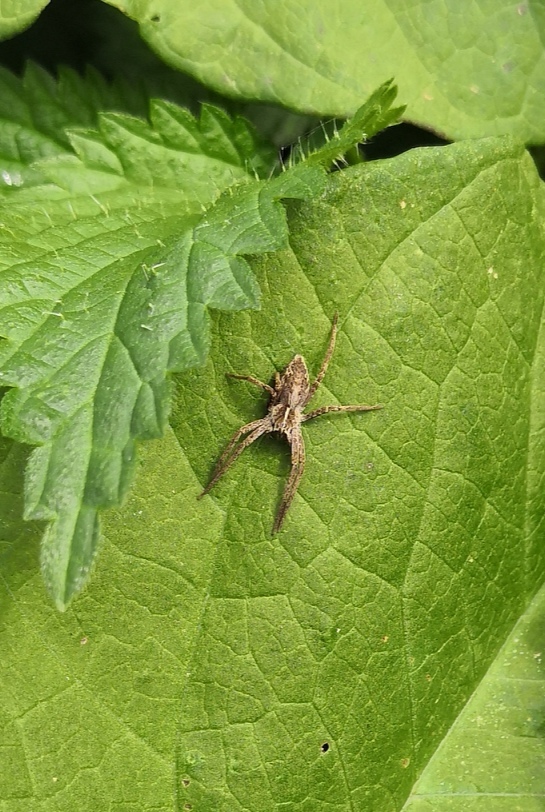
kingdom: Animalia
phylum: Arthropoda
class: Arachnida
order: Araneae
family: Pisauridae
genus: Pisaura
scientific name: Pisaura mirabilis
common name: Tent spider
